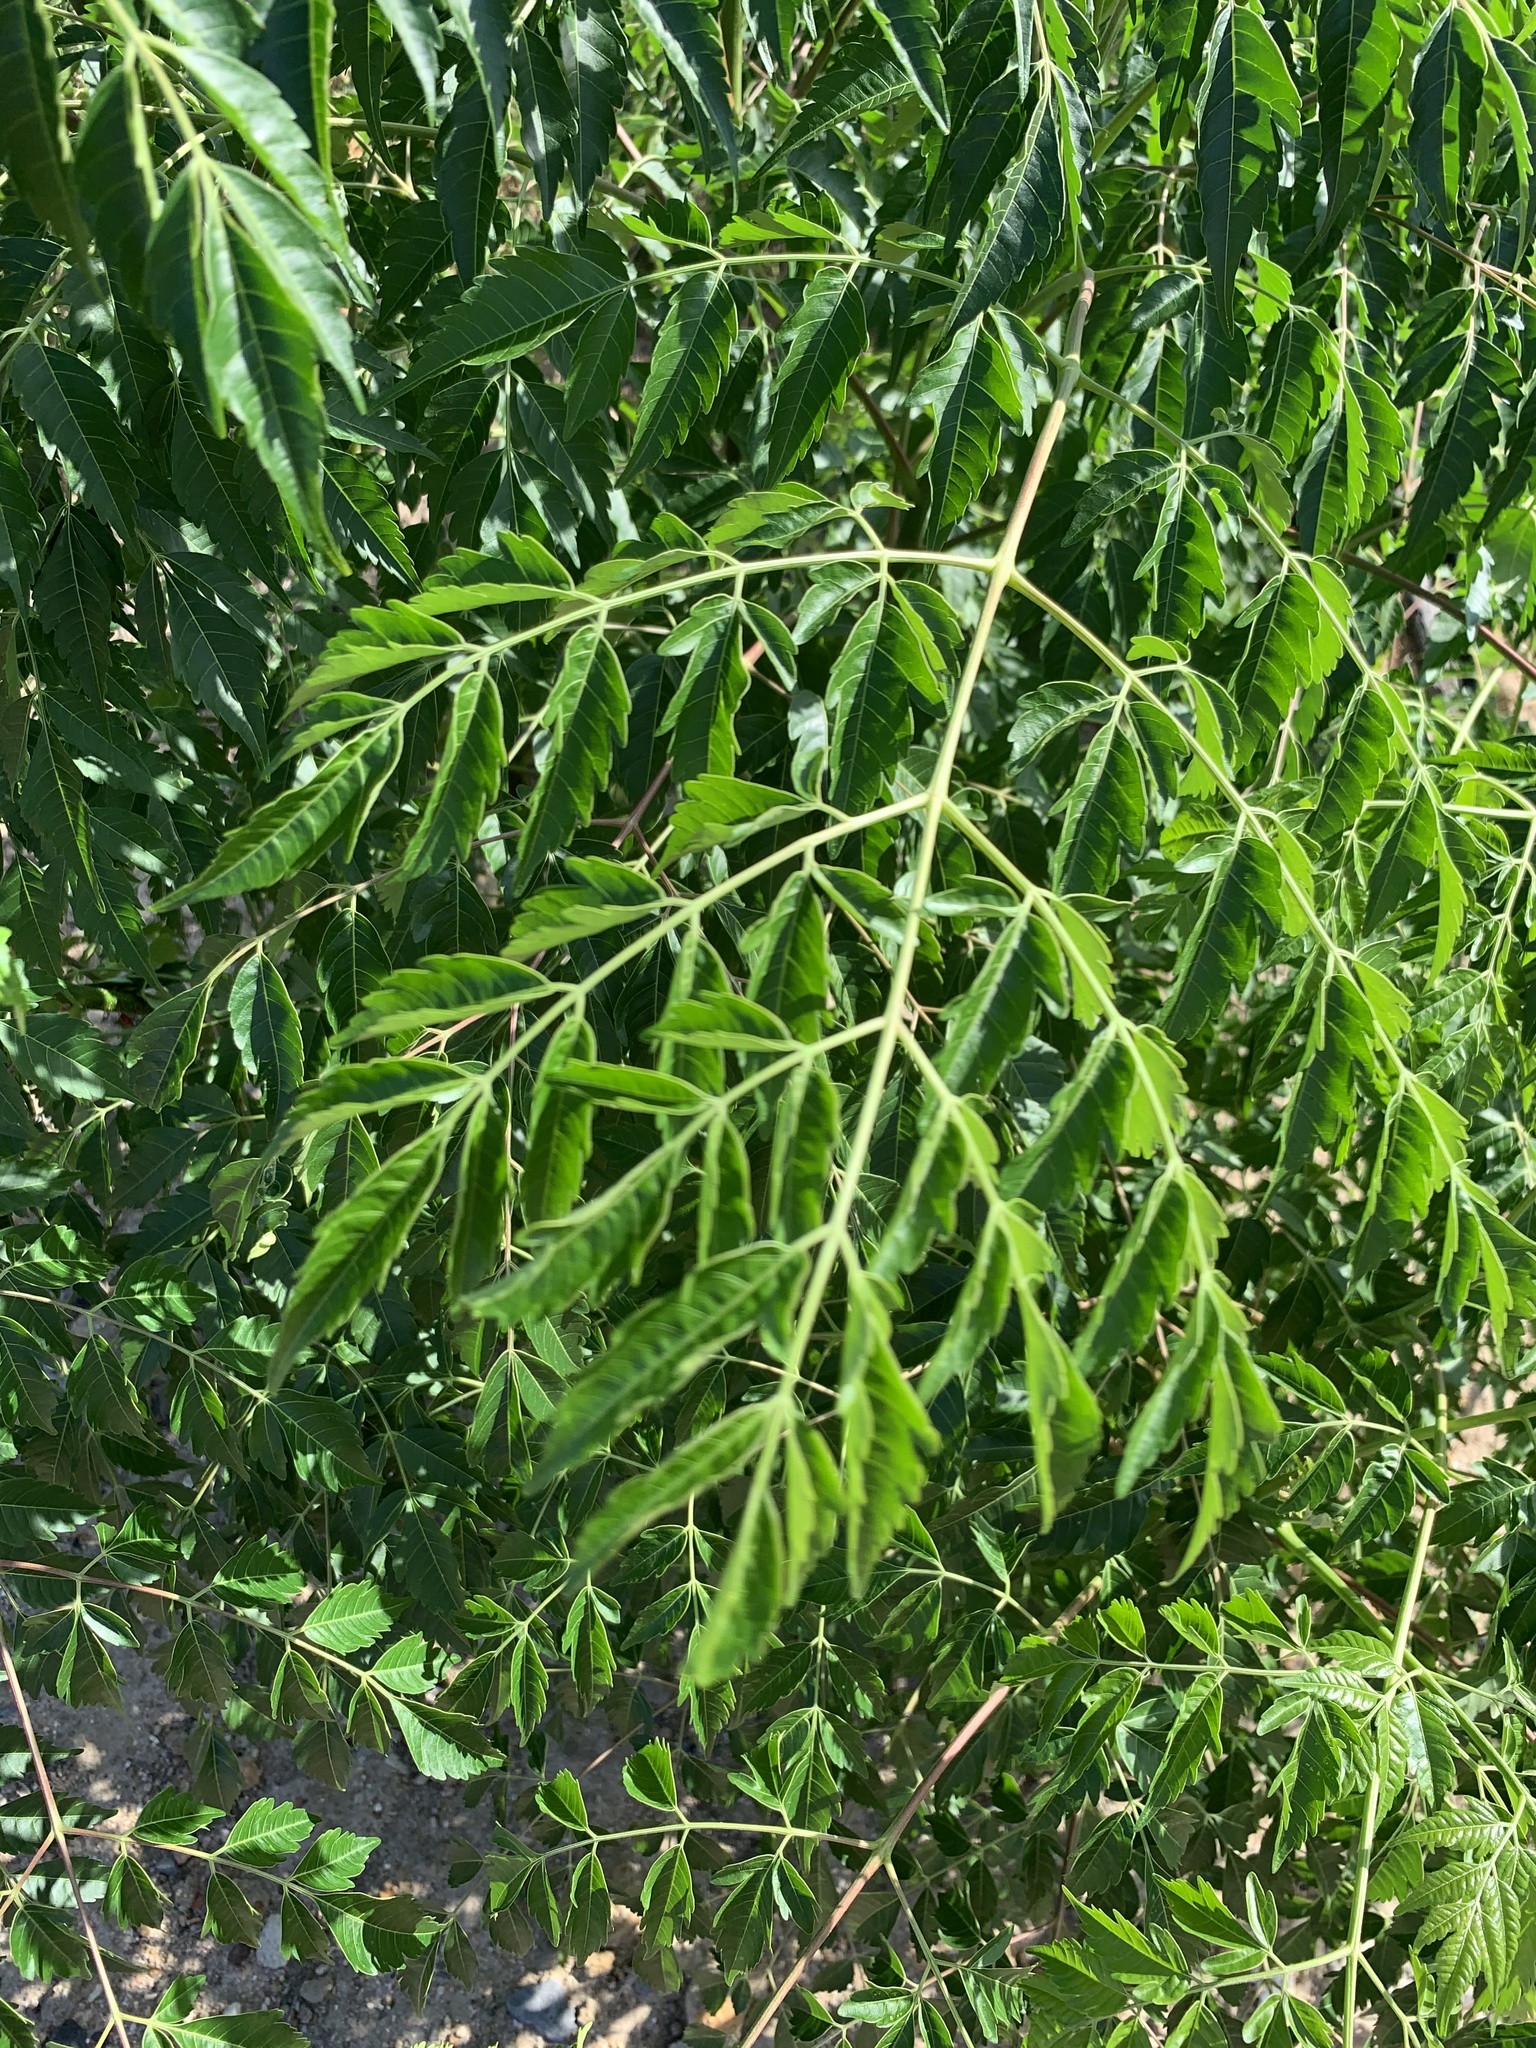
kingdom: Plantae
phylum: Tracheophyta
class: Magnoliopsida
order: Sapindales
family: Meliaceae
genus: Melia
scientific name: Melia azedarach
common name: Chinaberrytree
